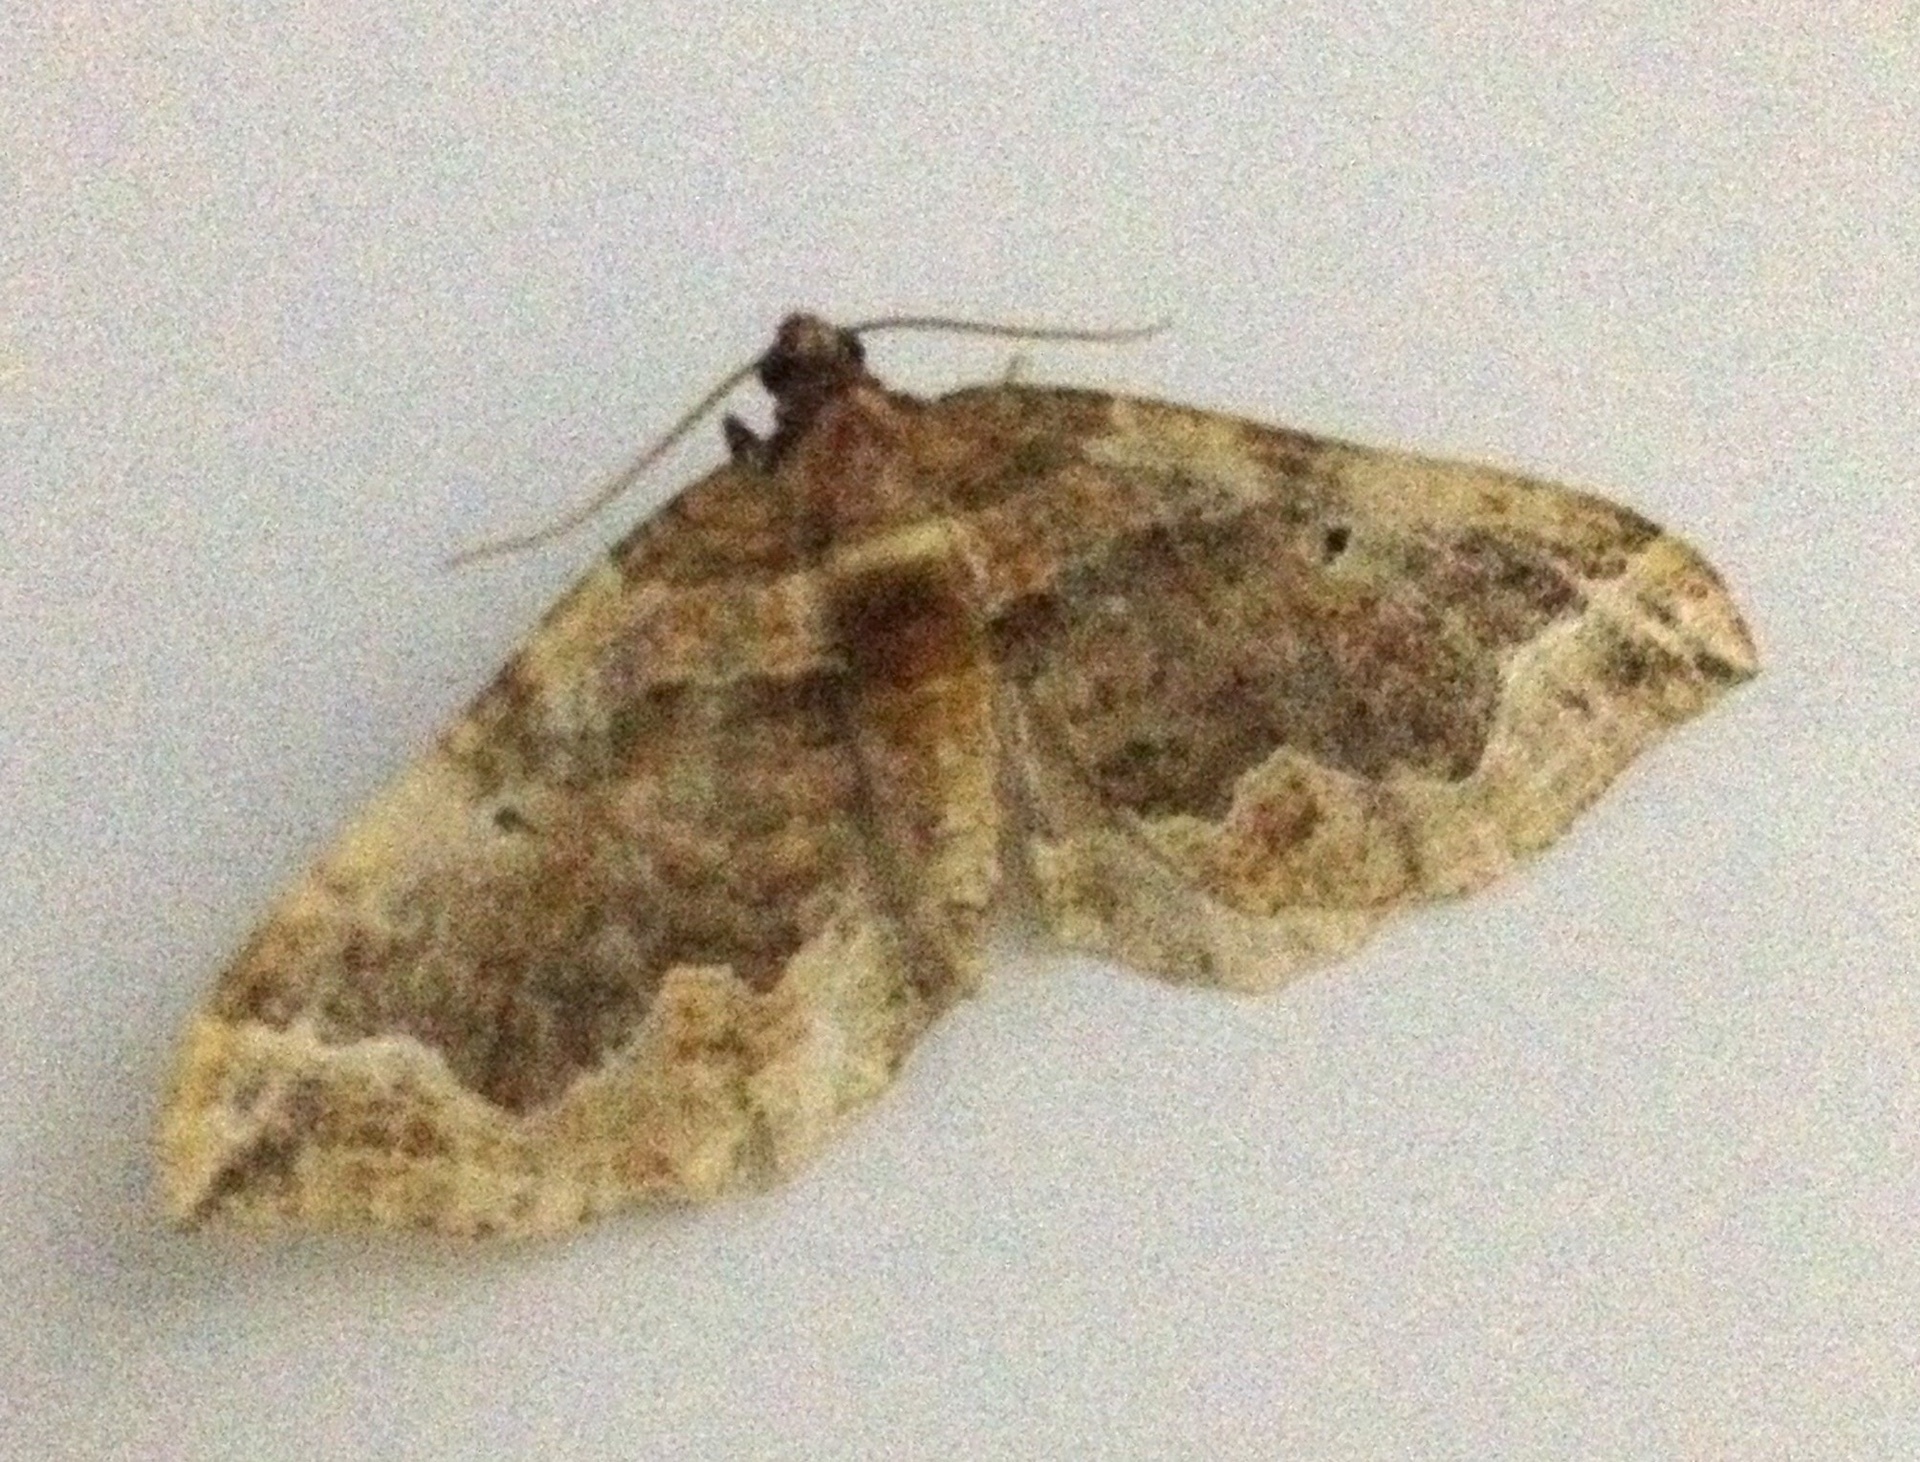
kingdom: Animalia
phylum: Arthropoda
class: Insecta
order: Lepidoptera
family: Geometridae
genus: Pelurga
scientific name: Pelurga comitata
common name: Dark spinach
